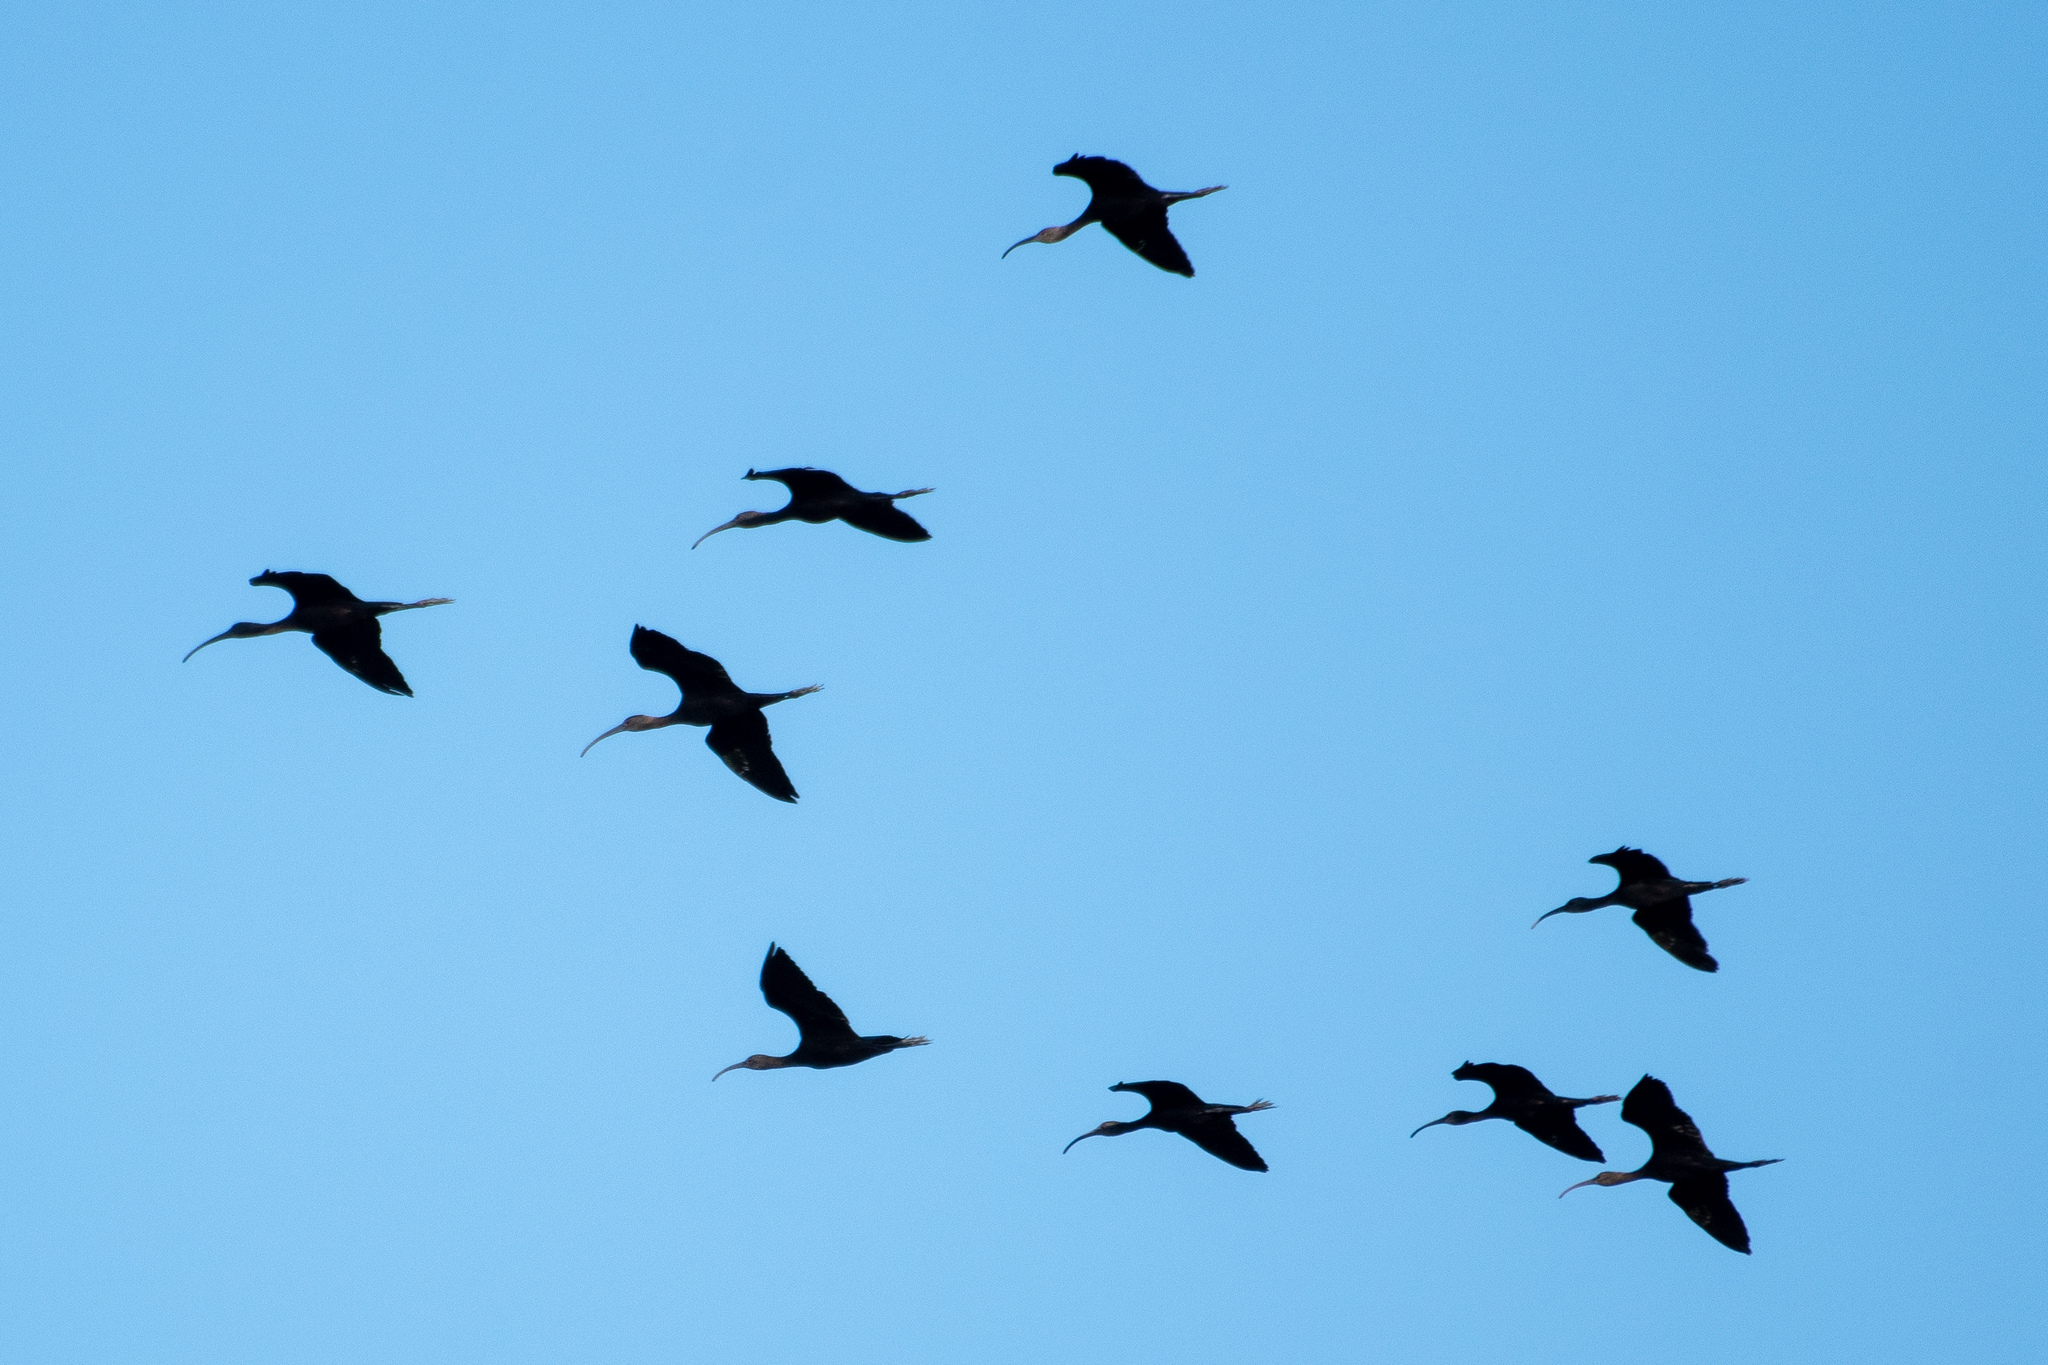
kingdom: Animalia
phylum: Chordata
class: Aves
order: Pelecaniformes
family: Threskiornithidae
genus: Plegadis
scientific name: Plegadis chihi
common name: White-faced ibis
